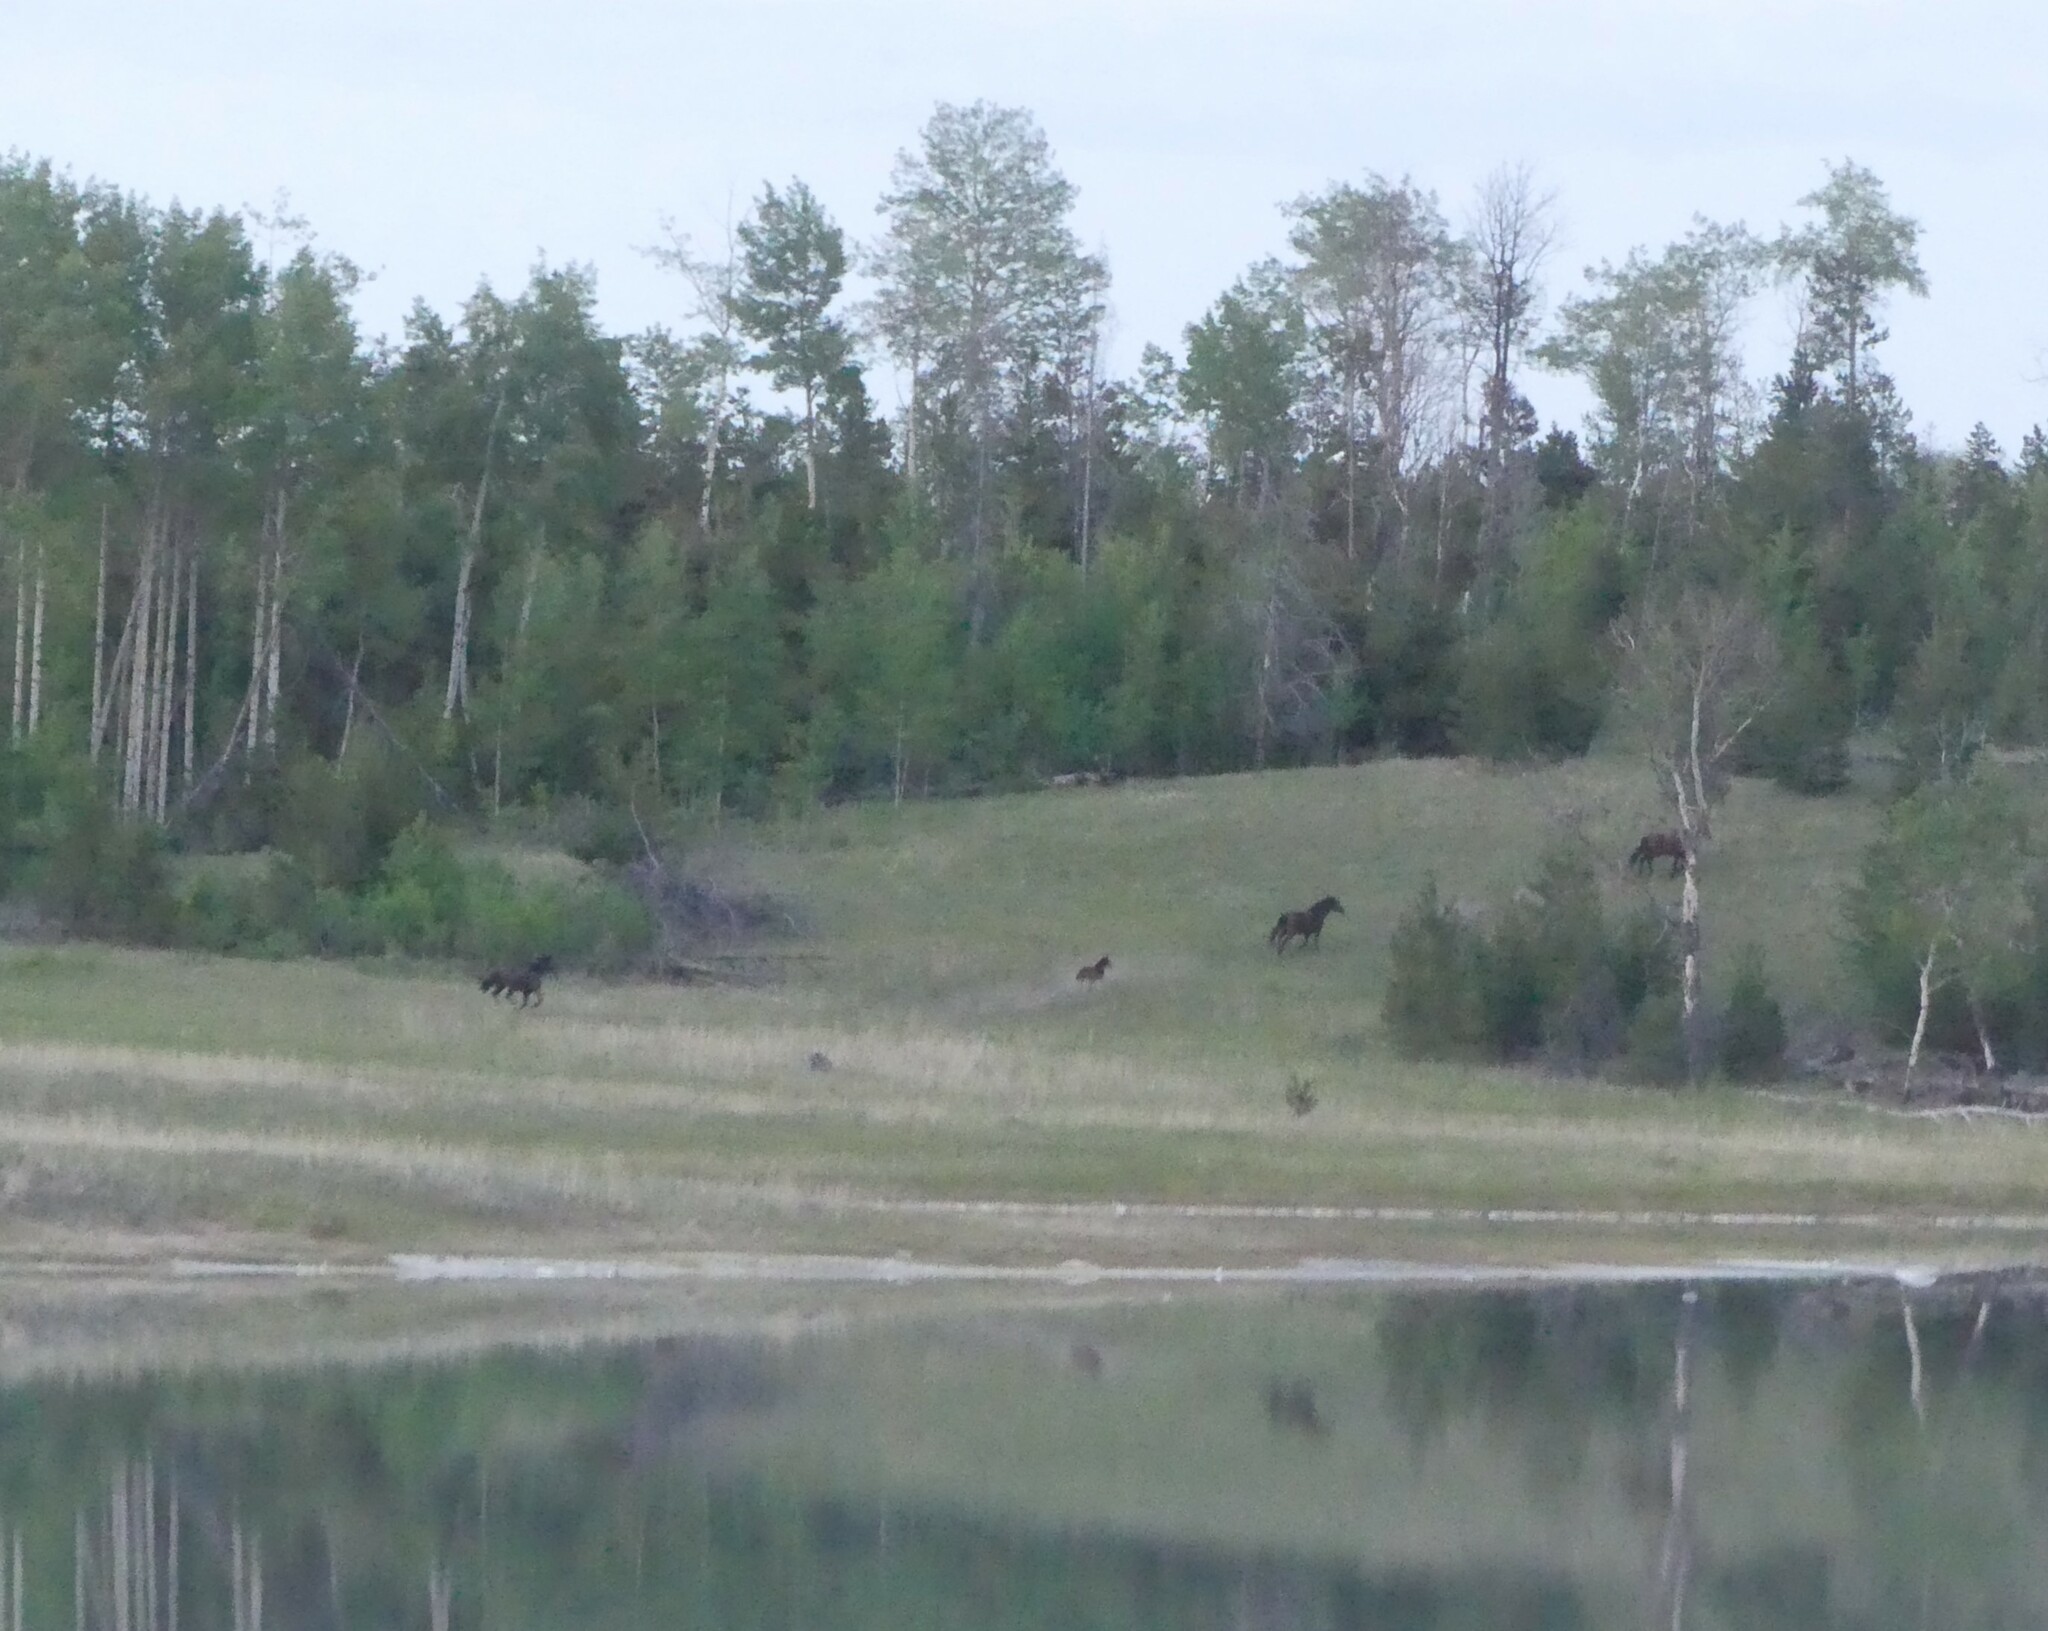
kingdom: Animalia
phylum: Chordata
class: Mammalia
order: Perissodactyla
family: Equidae
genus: Equus
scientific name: Equus caballus
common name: Horse
